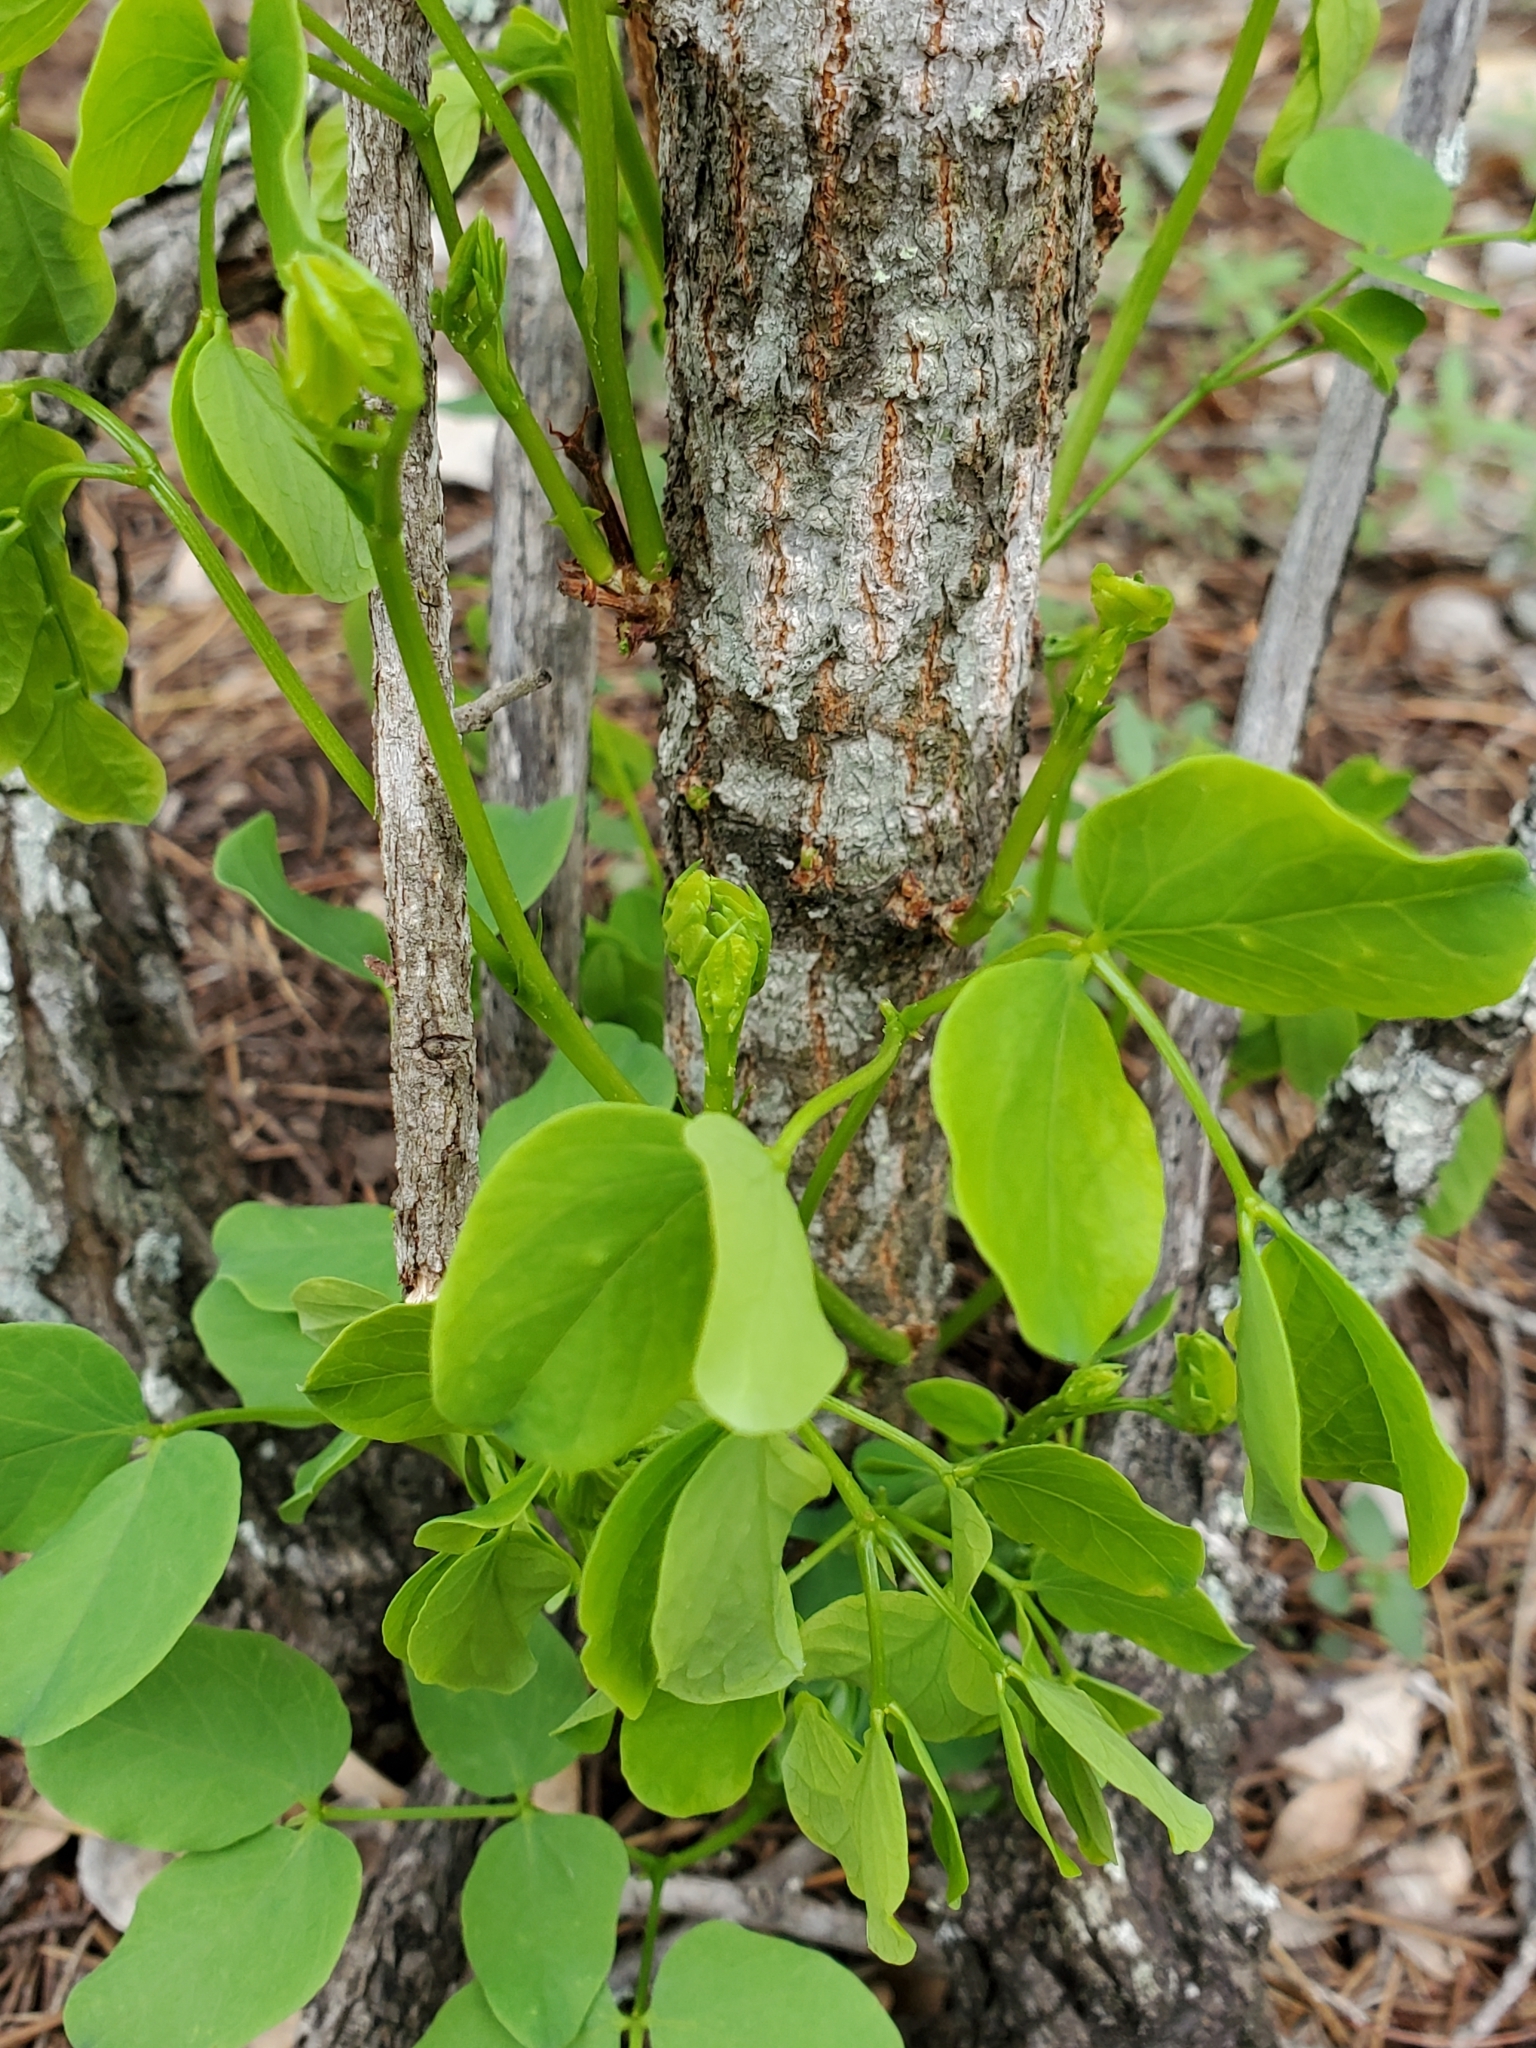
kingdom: Plantae
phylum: Tracheophyta
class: Magnoliopsida
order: Fabales
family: Fabaceae
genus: Leucaena
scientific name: Leucaena retusa
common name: Littleleaf leadtree
